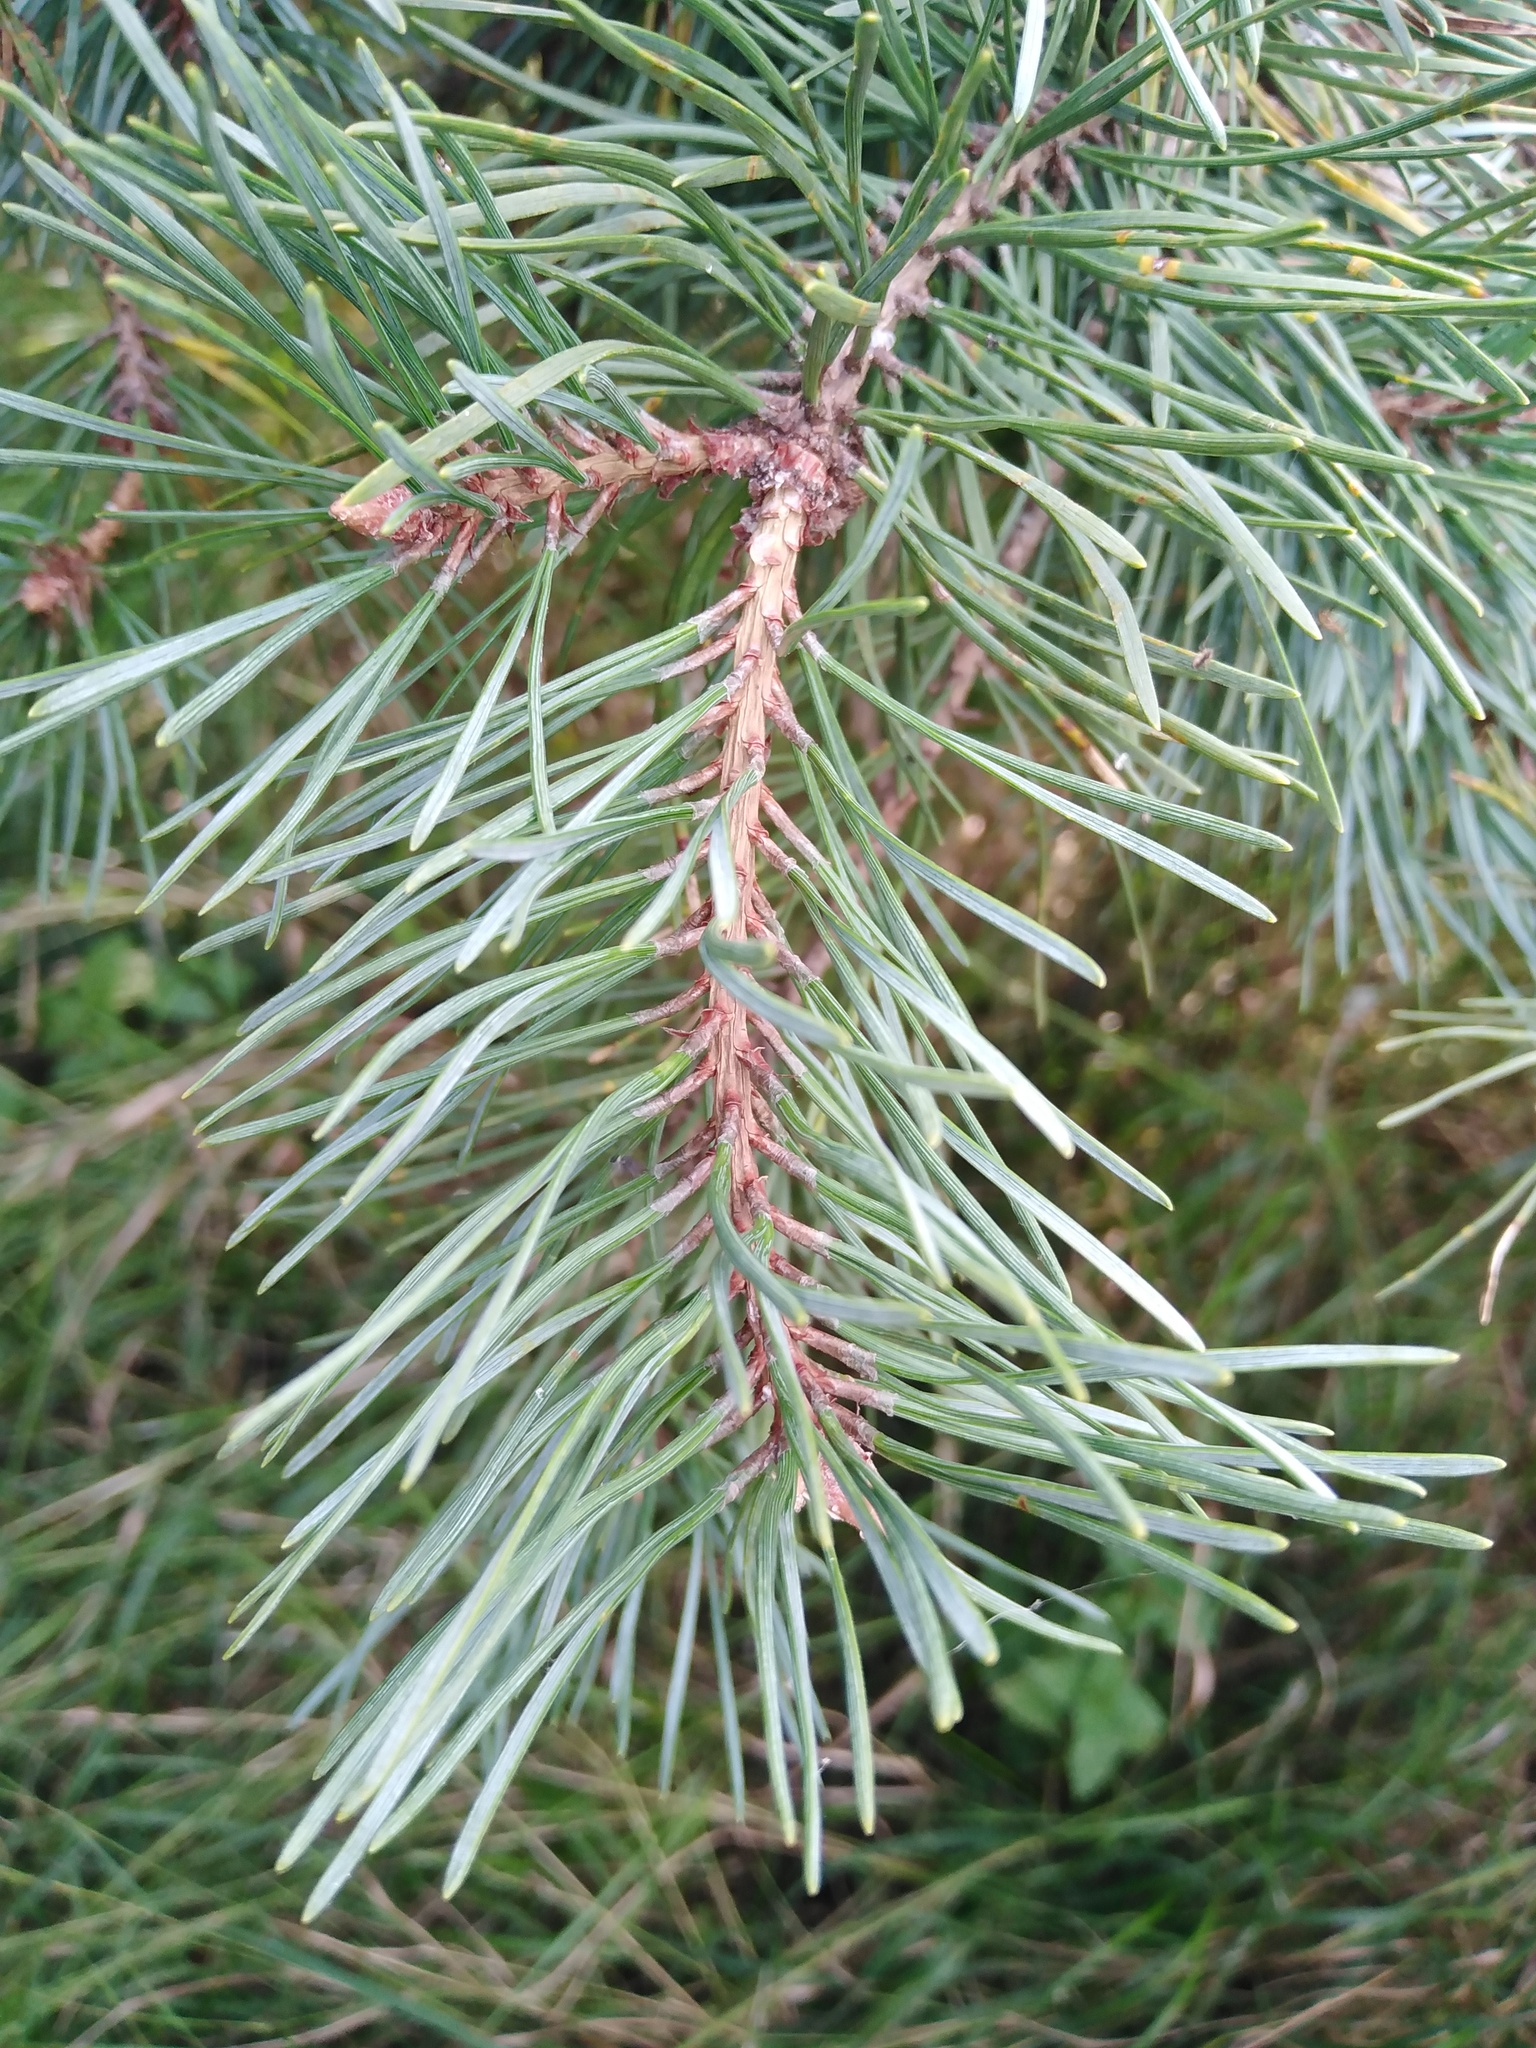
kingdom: Plantae
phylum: Tracheophyta
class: Pinopsida
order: Pinales
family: Pinaceae
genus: Pinus
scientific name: Pinus sylvestris
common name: Scots pine
